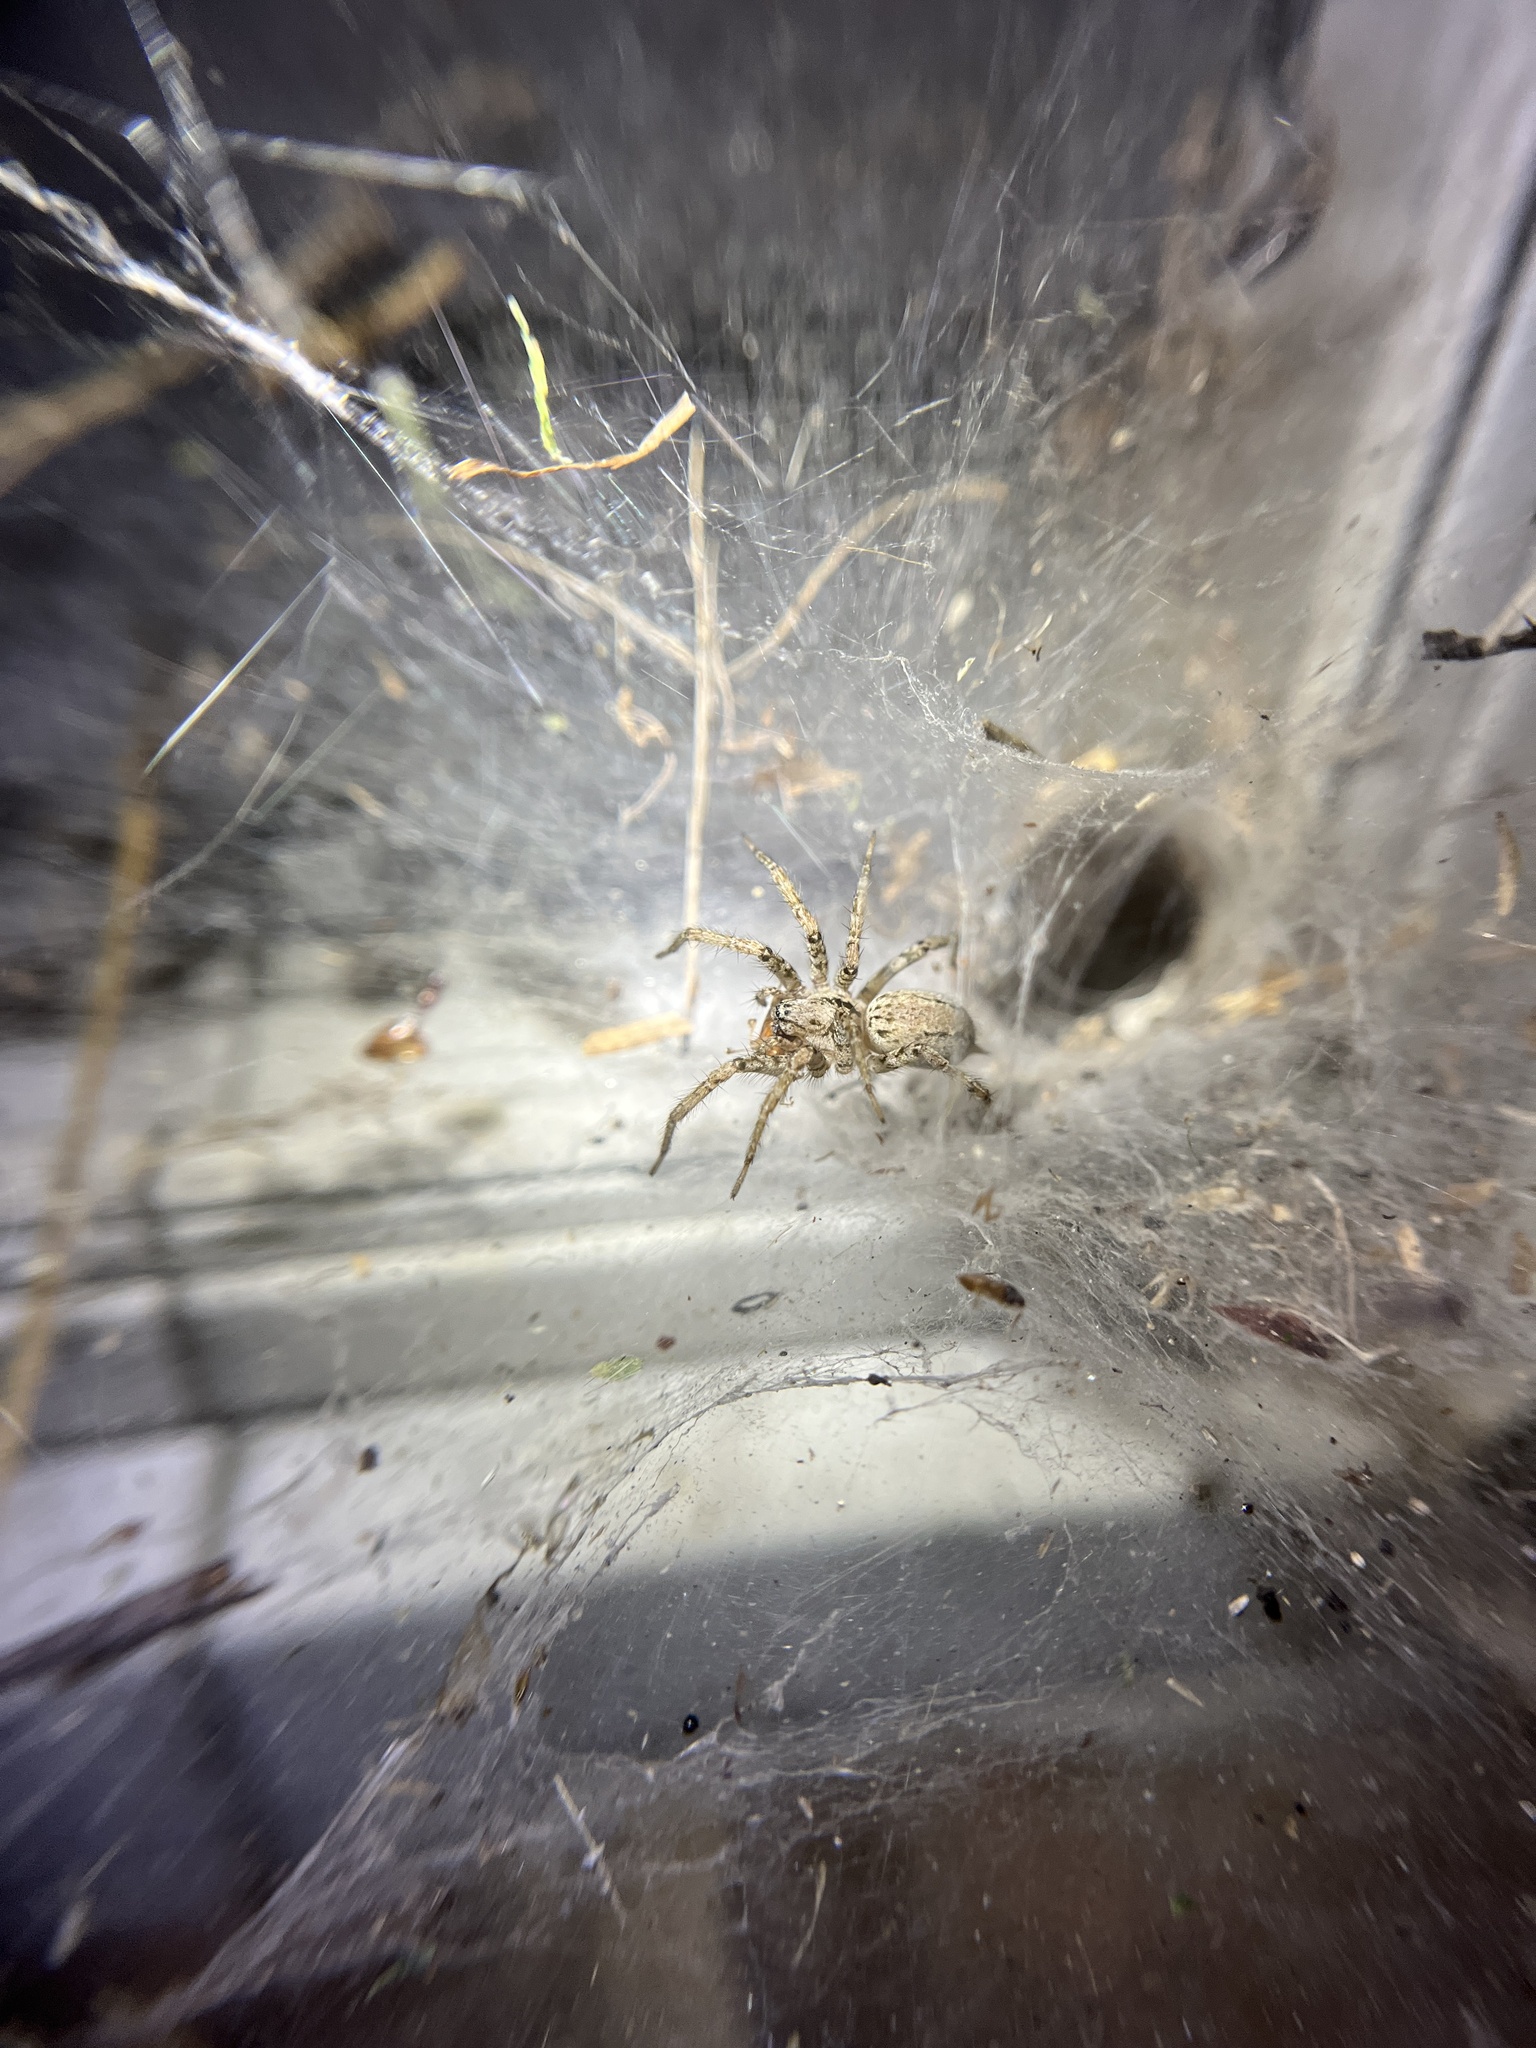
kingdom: Animalia
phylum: Arthropoda
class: Arachnida
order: Araneae
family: Agelenidae
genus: Barronopsis
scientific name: Barronopsis texana
